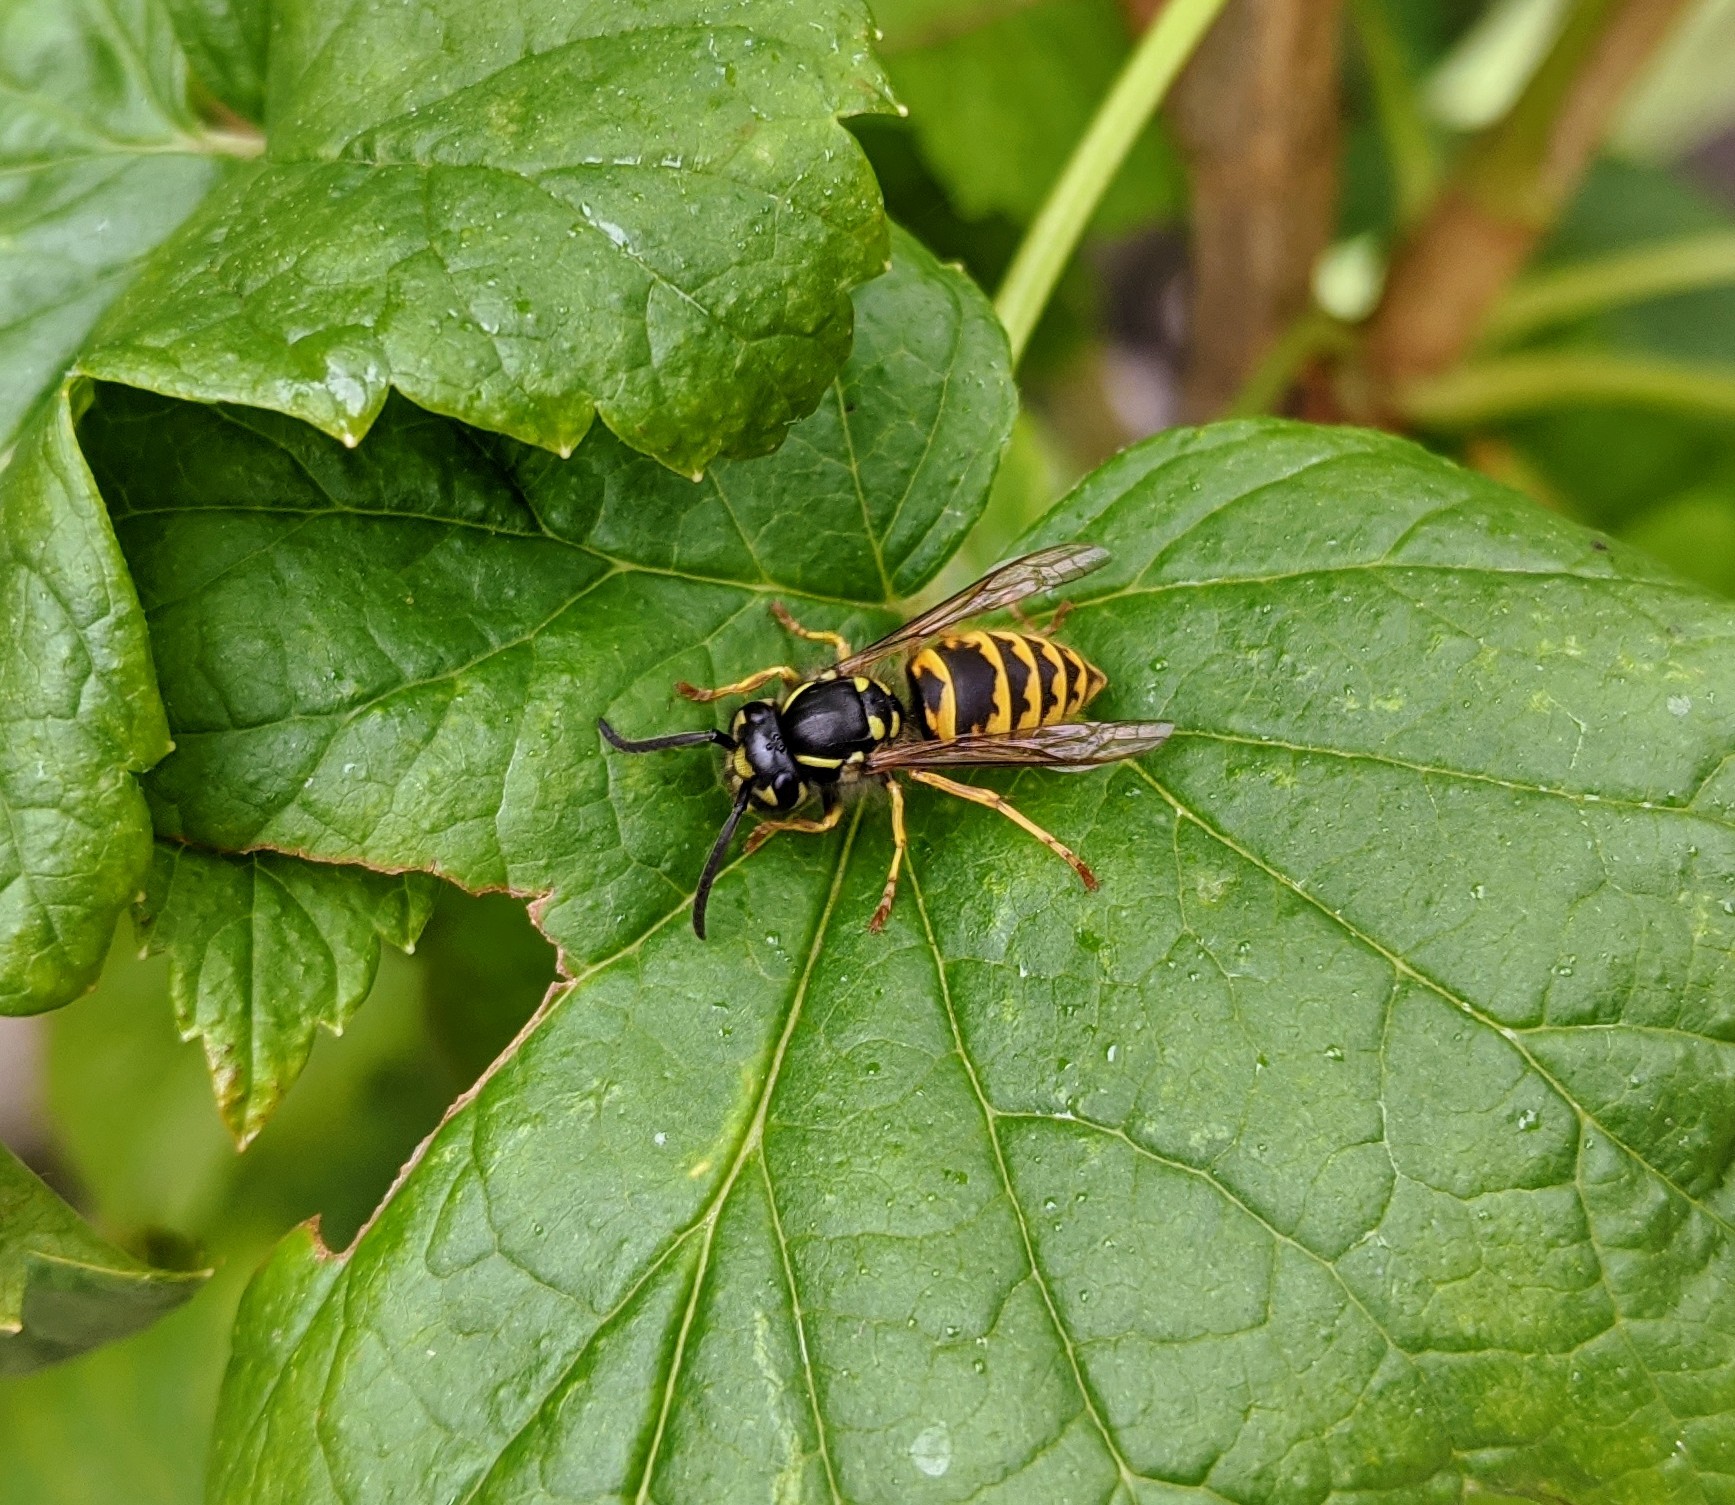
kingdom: Animalia
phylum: Arthropoda
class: Insecta
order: Hymenoptera
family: Vespidae
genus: Vespula
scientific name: Vespula vulgaris
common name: Common wasp
